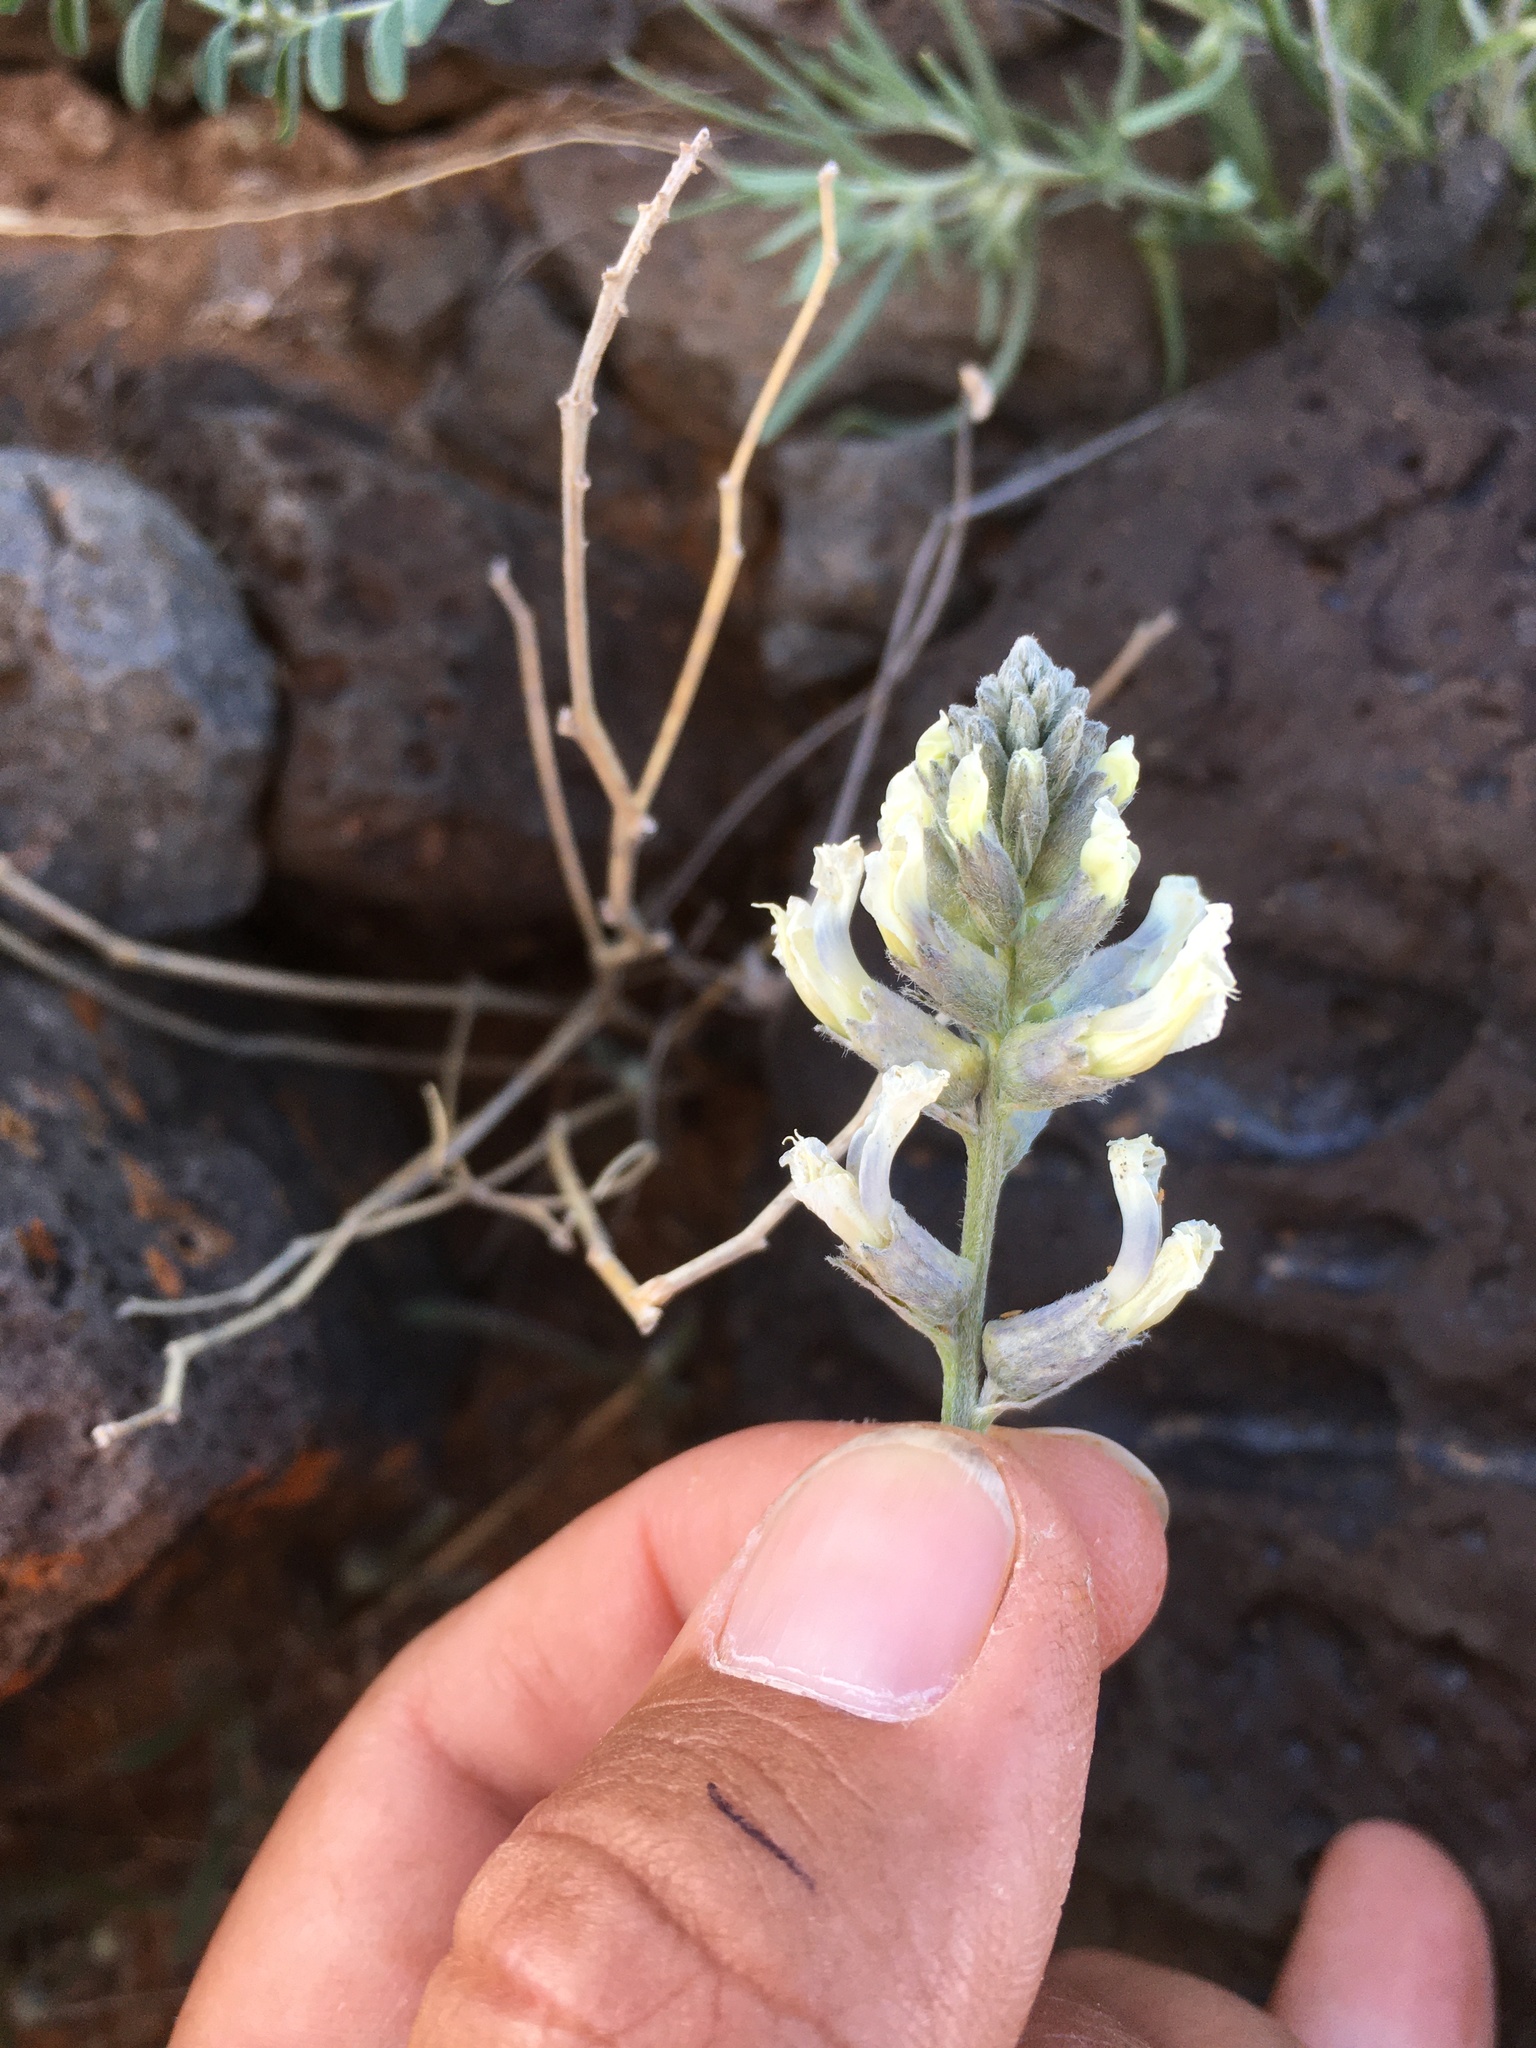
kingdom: Plantae
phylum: Tracheophyta
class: Magnoliopsida
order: Fabales
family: Fabaceae
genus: Sophora
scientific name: Sophora nuttalliana
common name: Silky sophora
